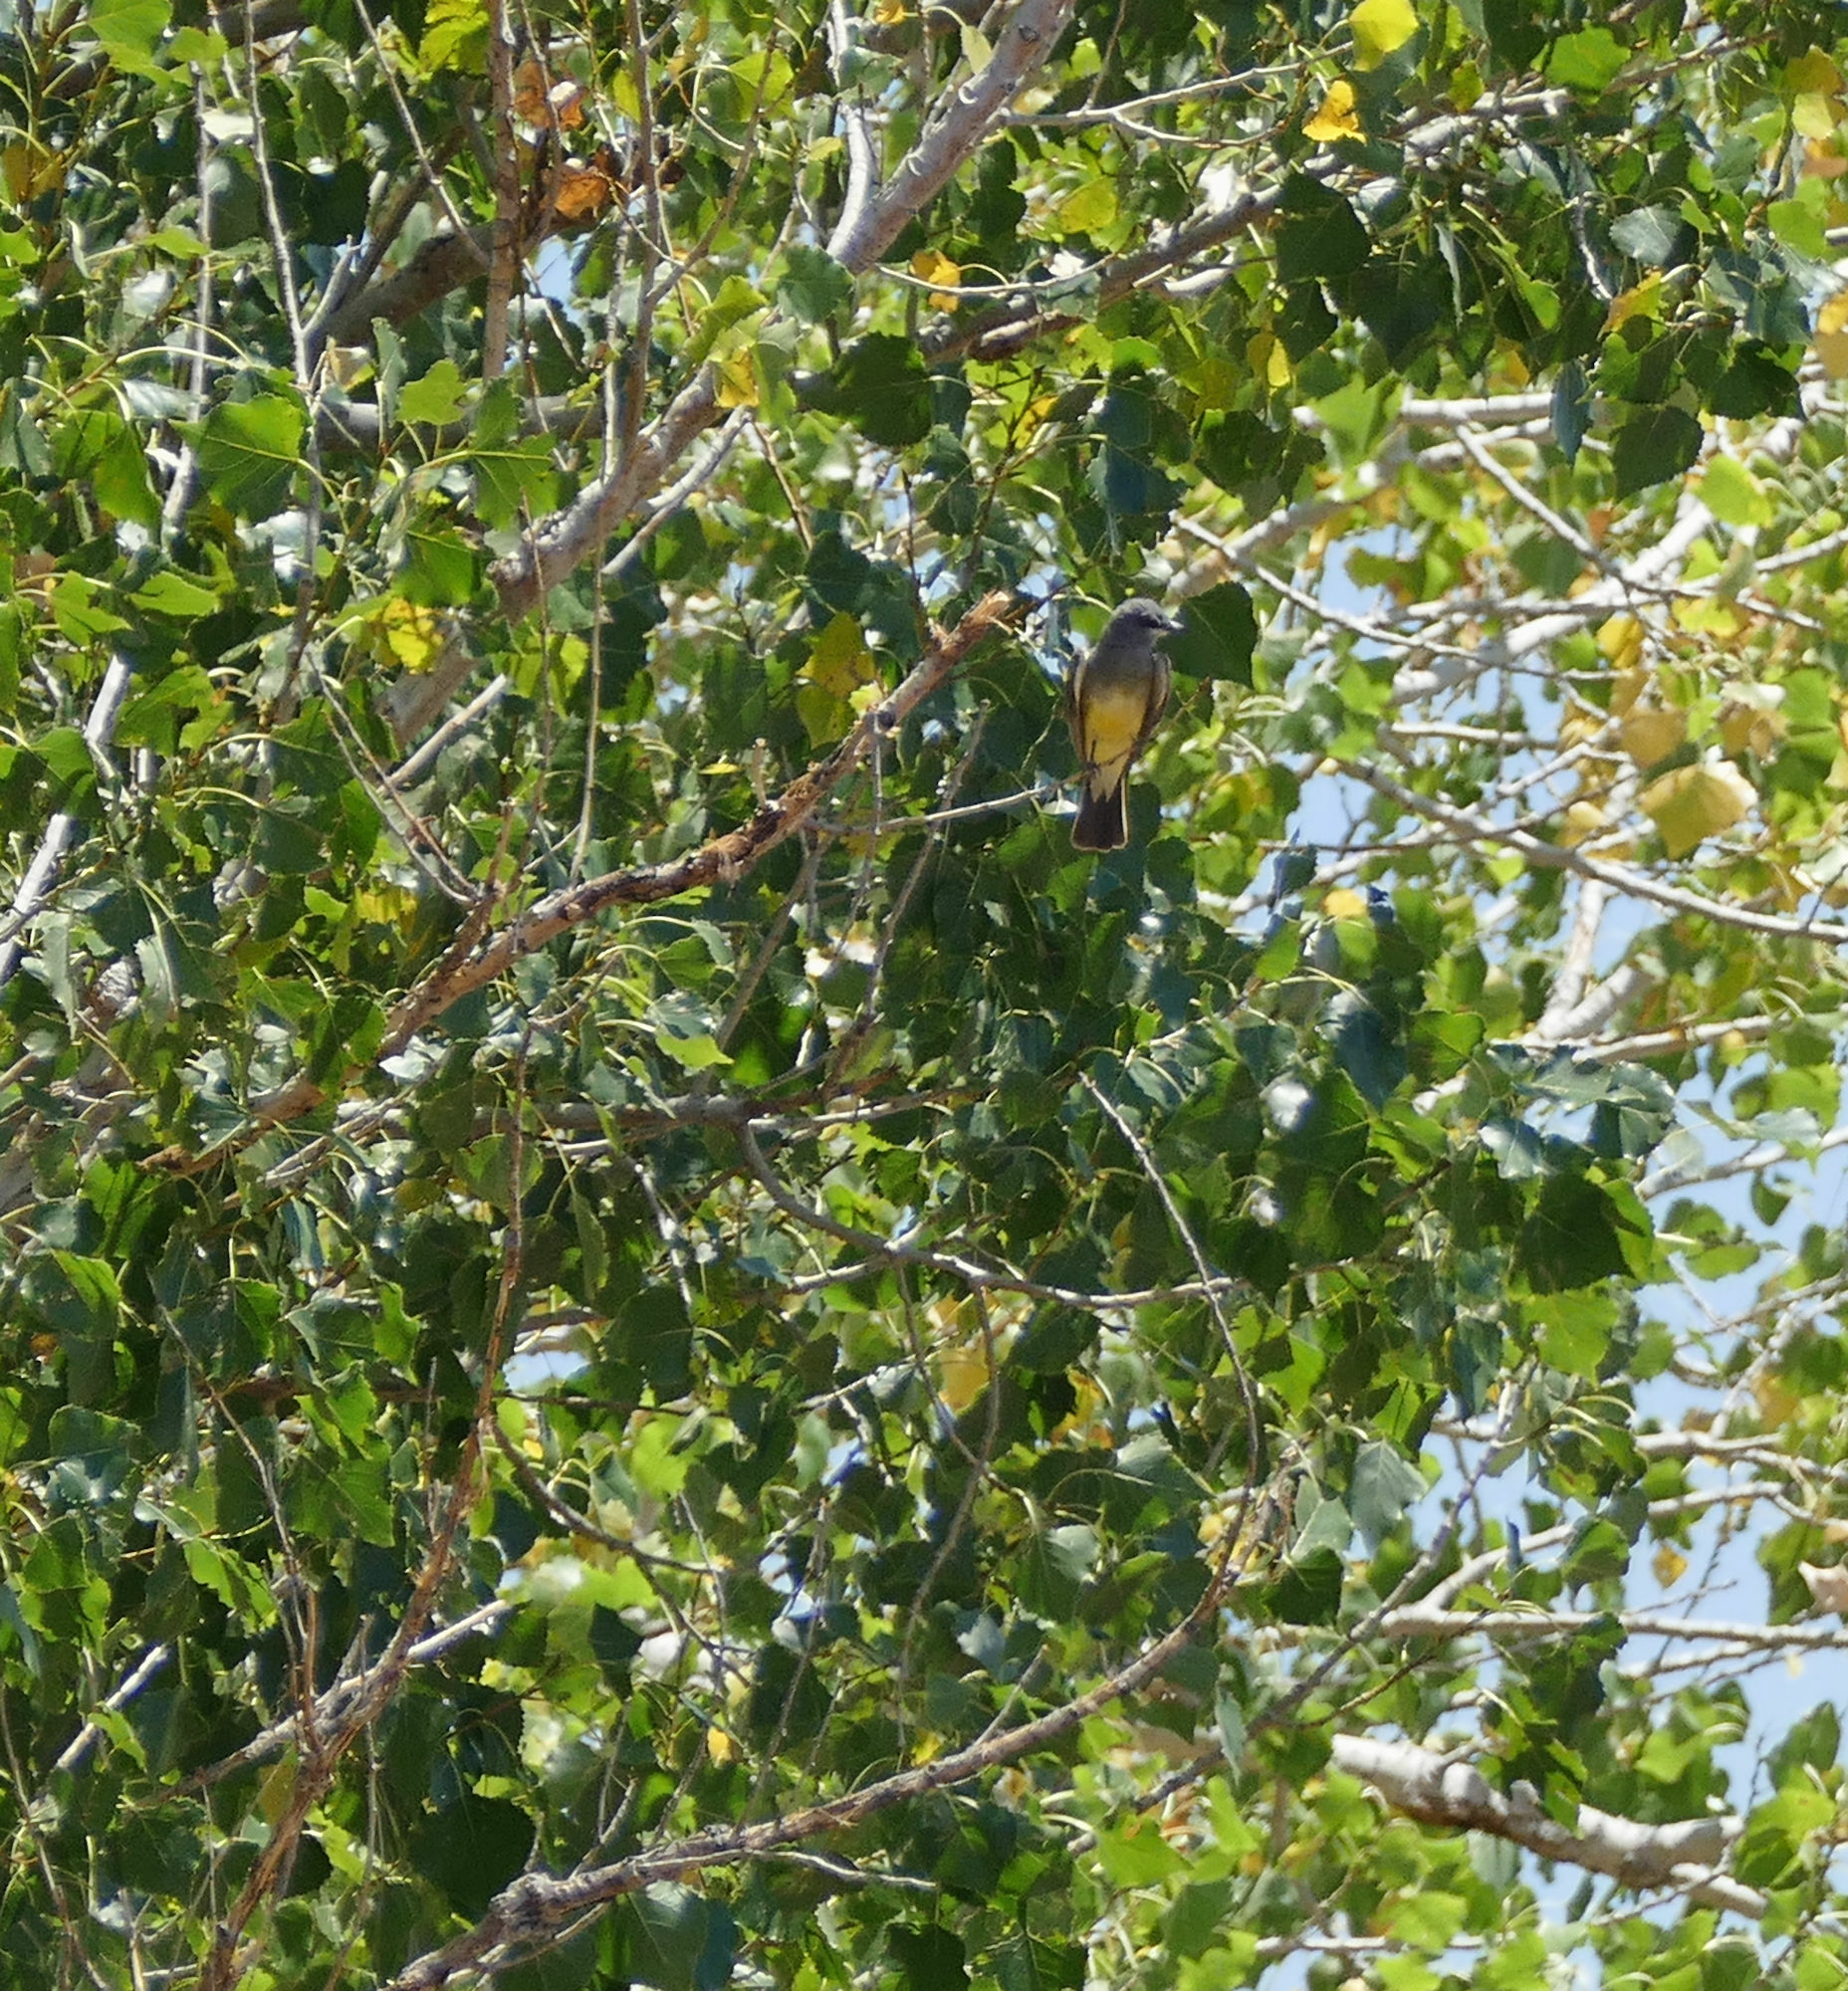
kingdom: Animalia
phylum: Chordata
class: Aves
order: Passeriformes
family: Tyrannidae
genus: Tyrannus
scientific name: Tyrannus vociferans
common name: Cassin's kingbird
